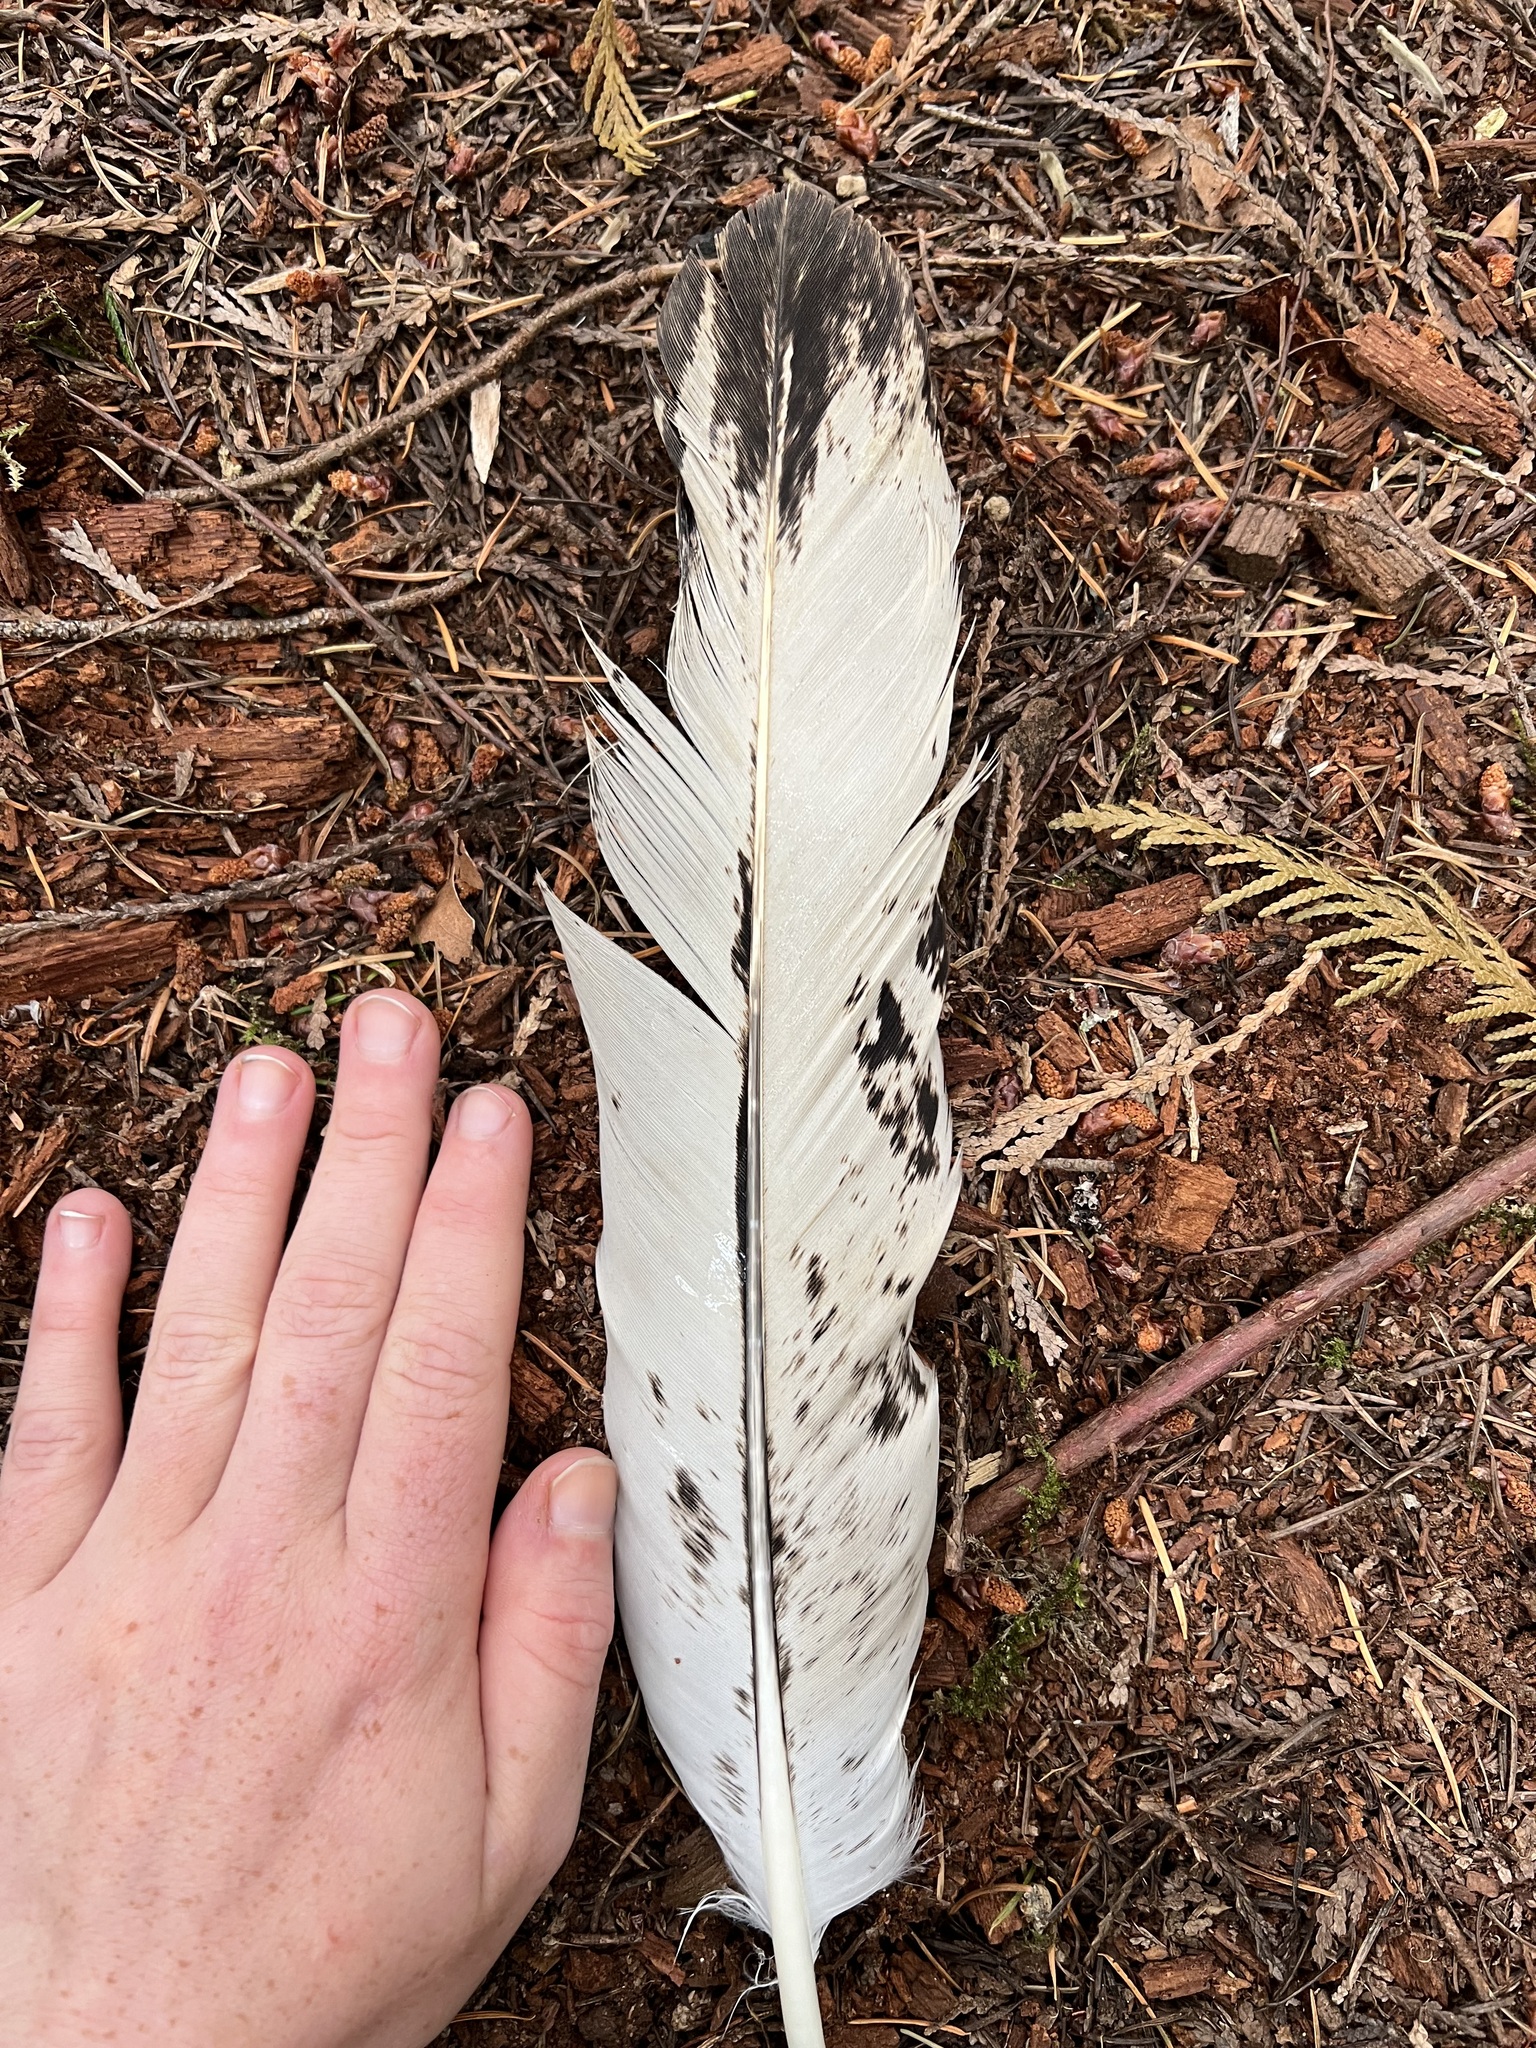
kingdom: Animalia
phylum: Chordata
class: Aves
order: Accipitriformes
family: Accipitridae
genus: Haliaeetus
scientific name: Haliaeetus leucocephalus
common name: Bald eagle
